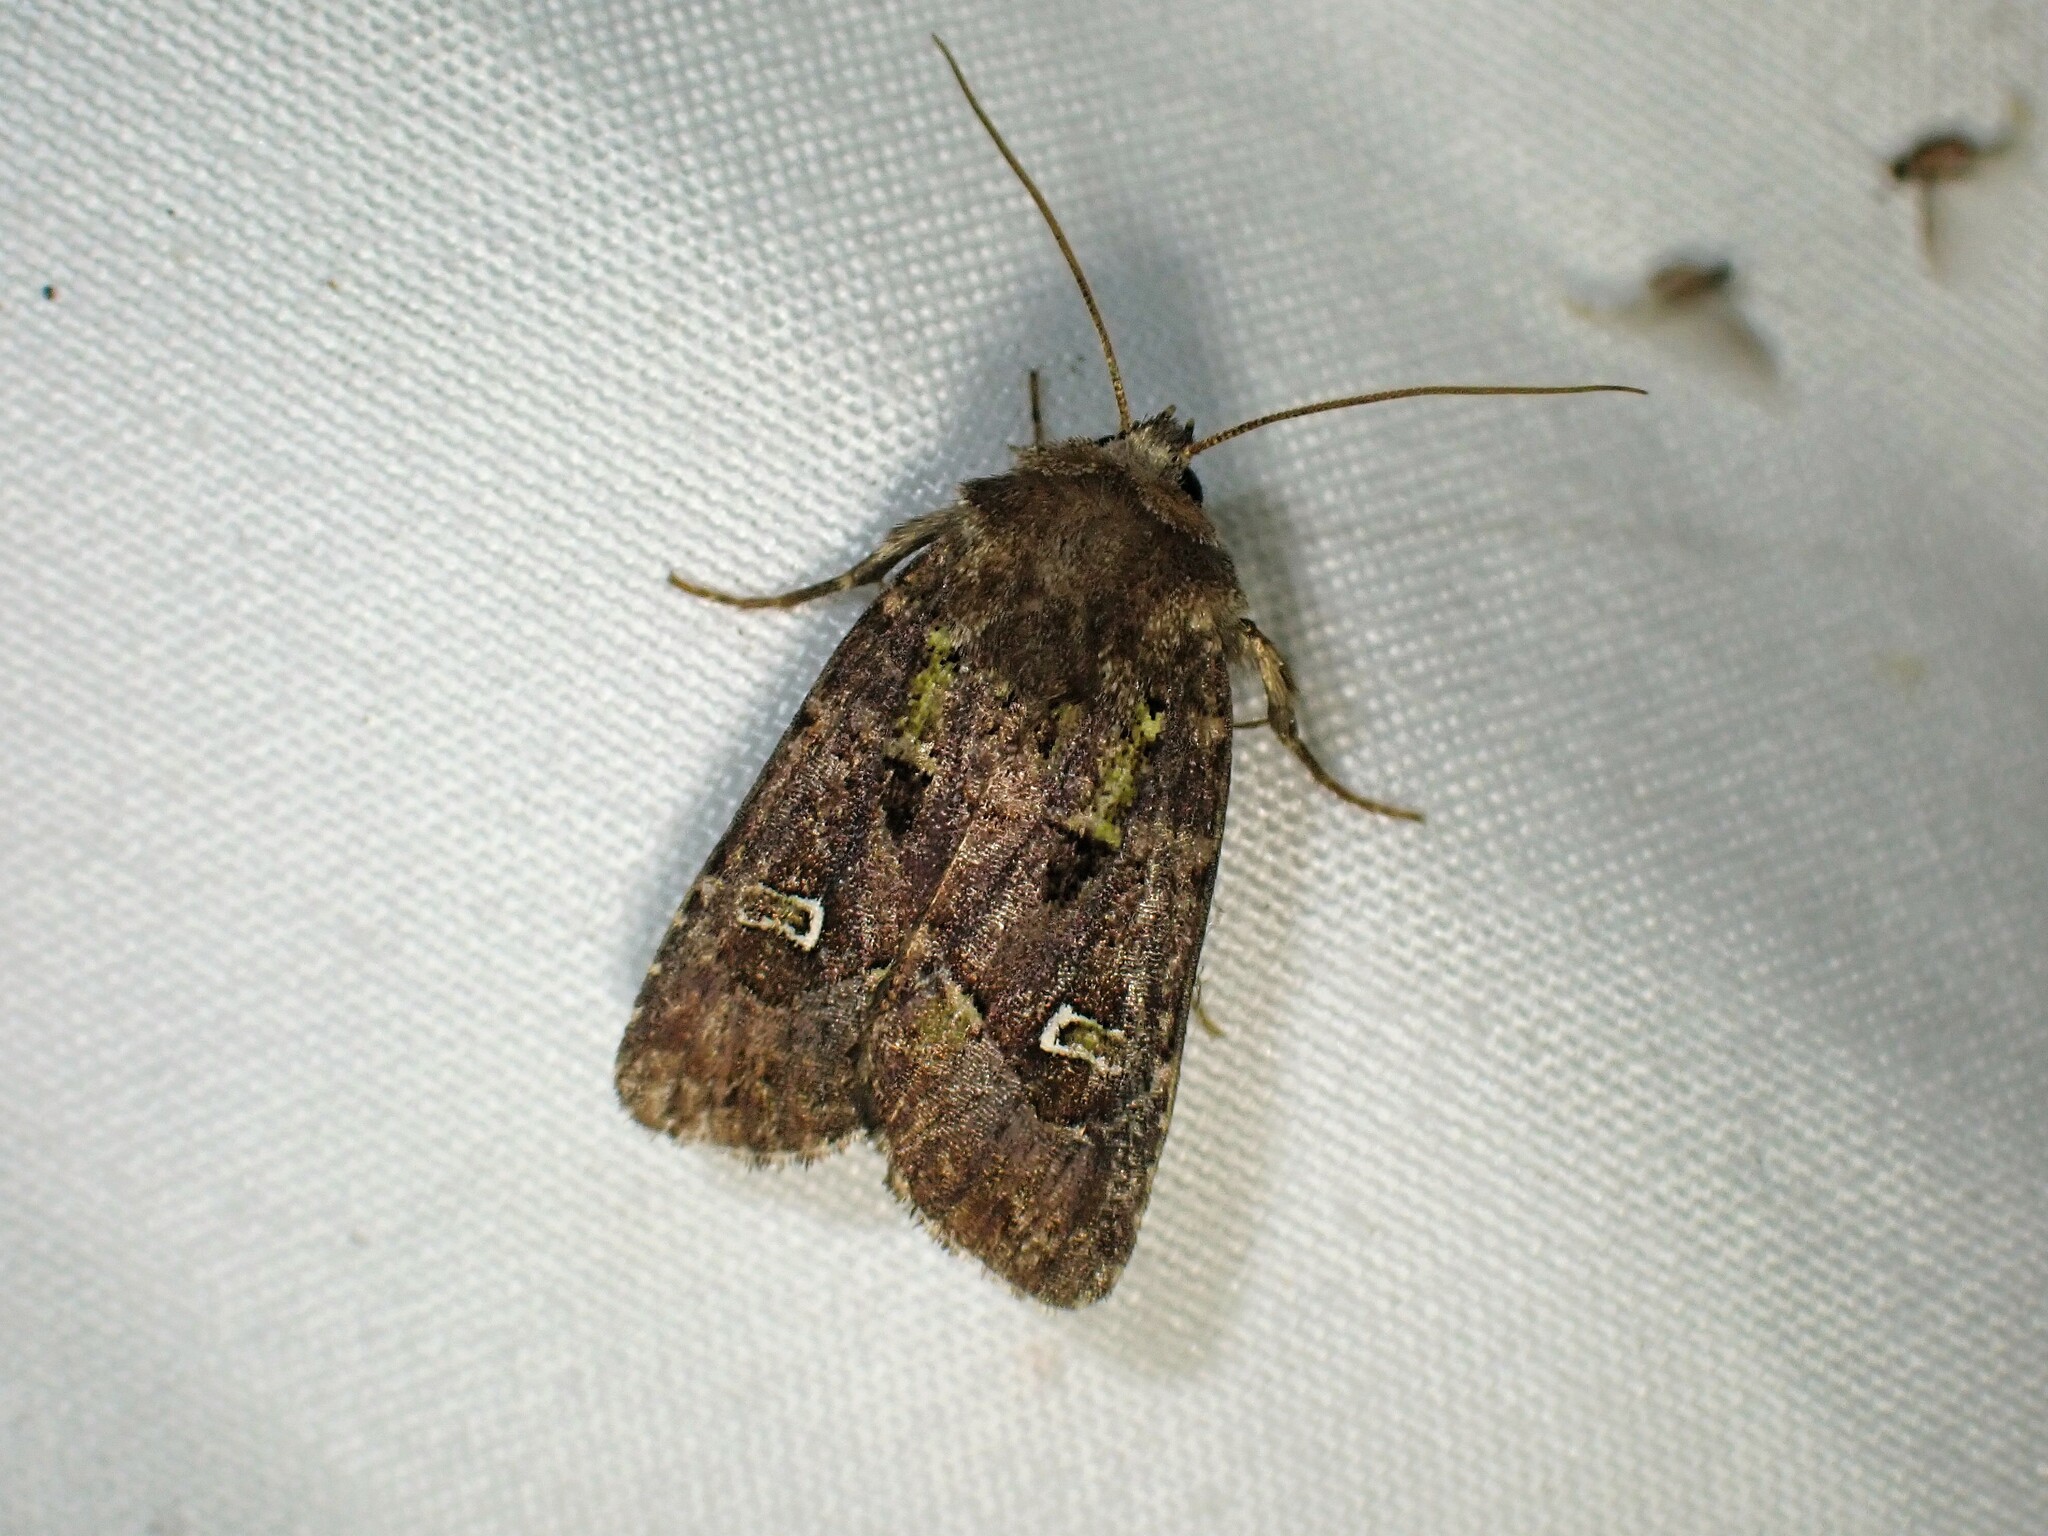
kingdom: Animalia
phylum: Arthropoda
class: Insecta
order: Lepidoptera
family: Noctuidae
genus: Lacinipolia
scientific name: Lacinipolia renigera
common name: Kidney-spotted minor
